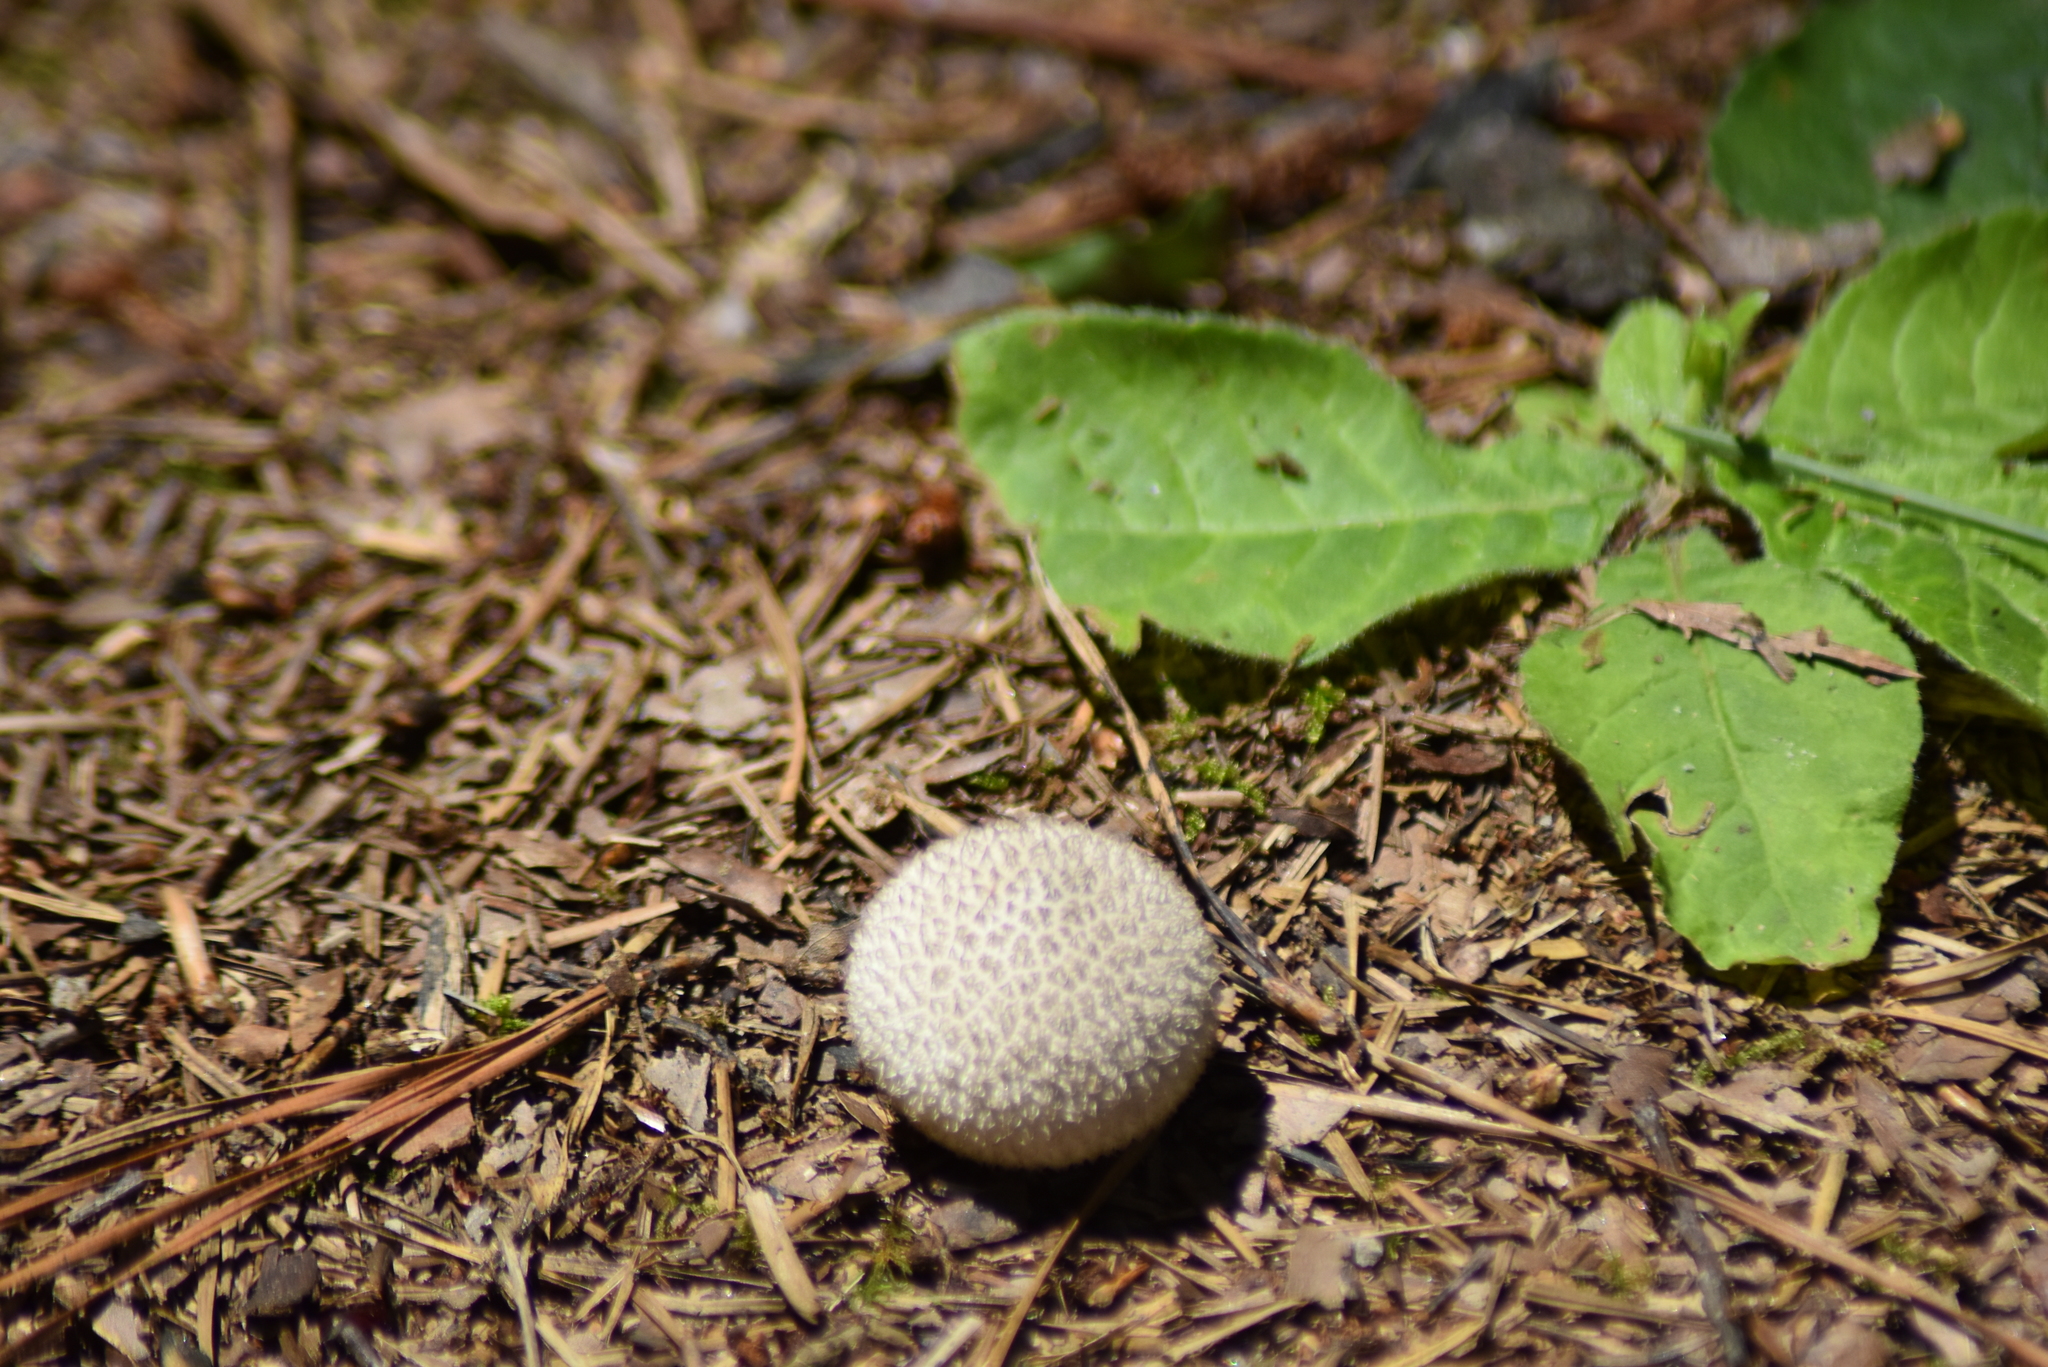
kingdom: Fungi
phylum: Basidiomycota
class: Agaricomycetes
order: Agaricales
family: Agaricaceae
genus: Lycoperdon
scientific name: Lycoperdon marginatum
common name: Peeling puffball
